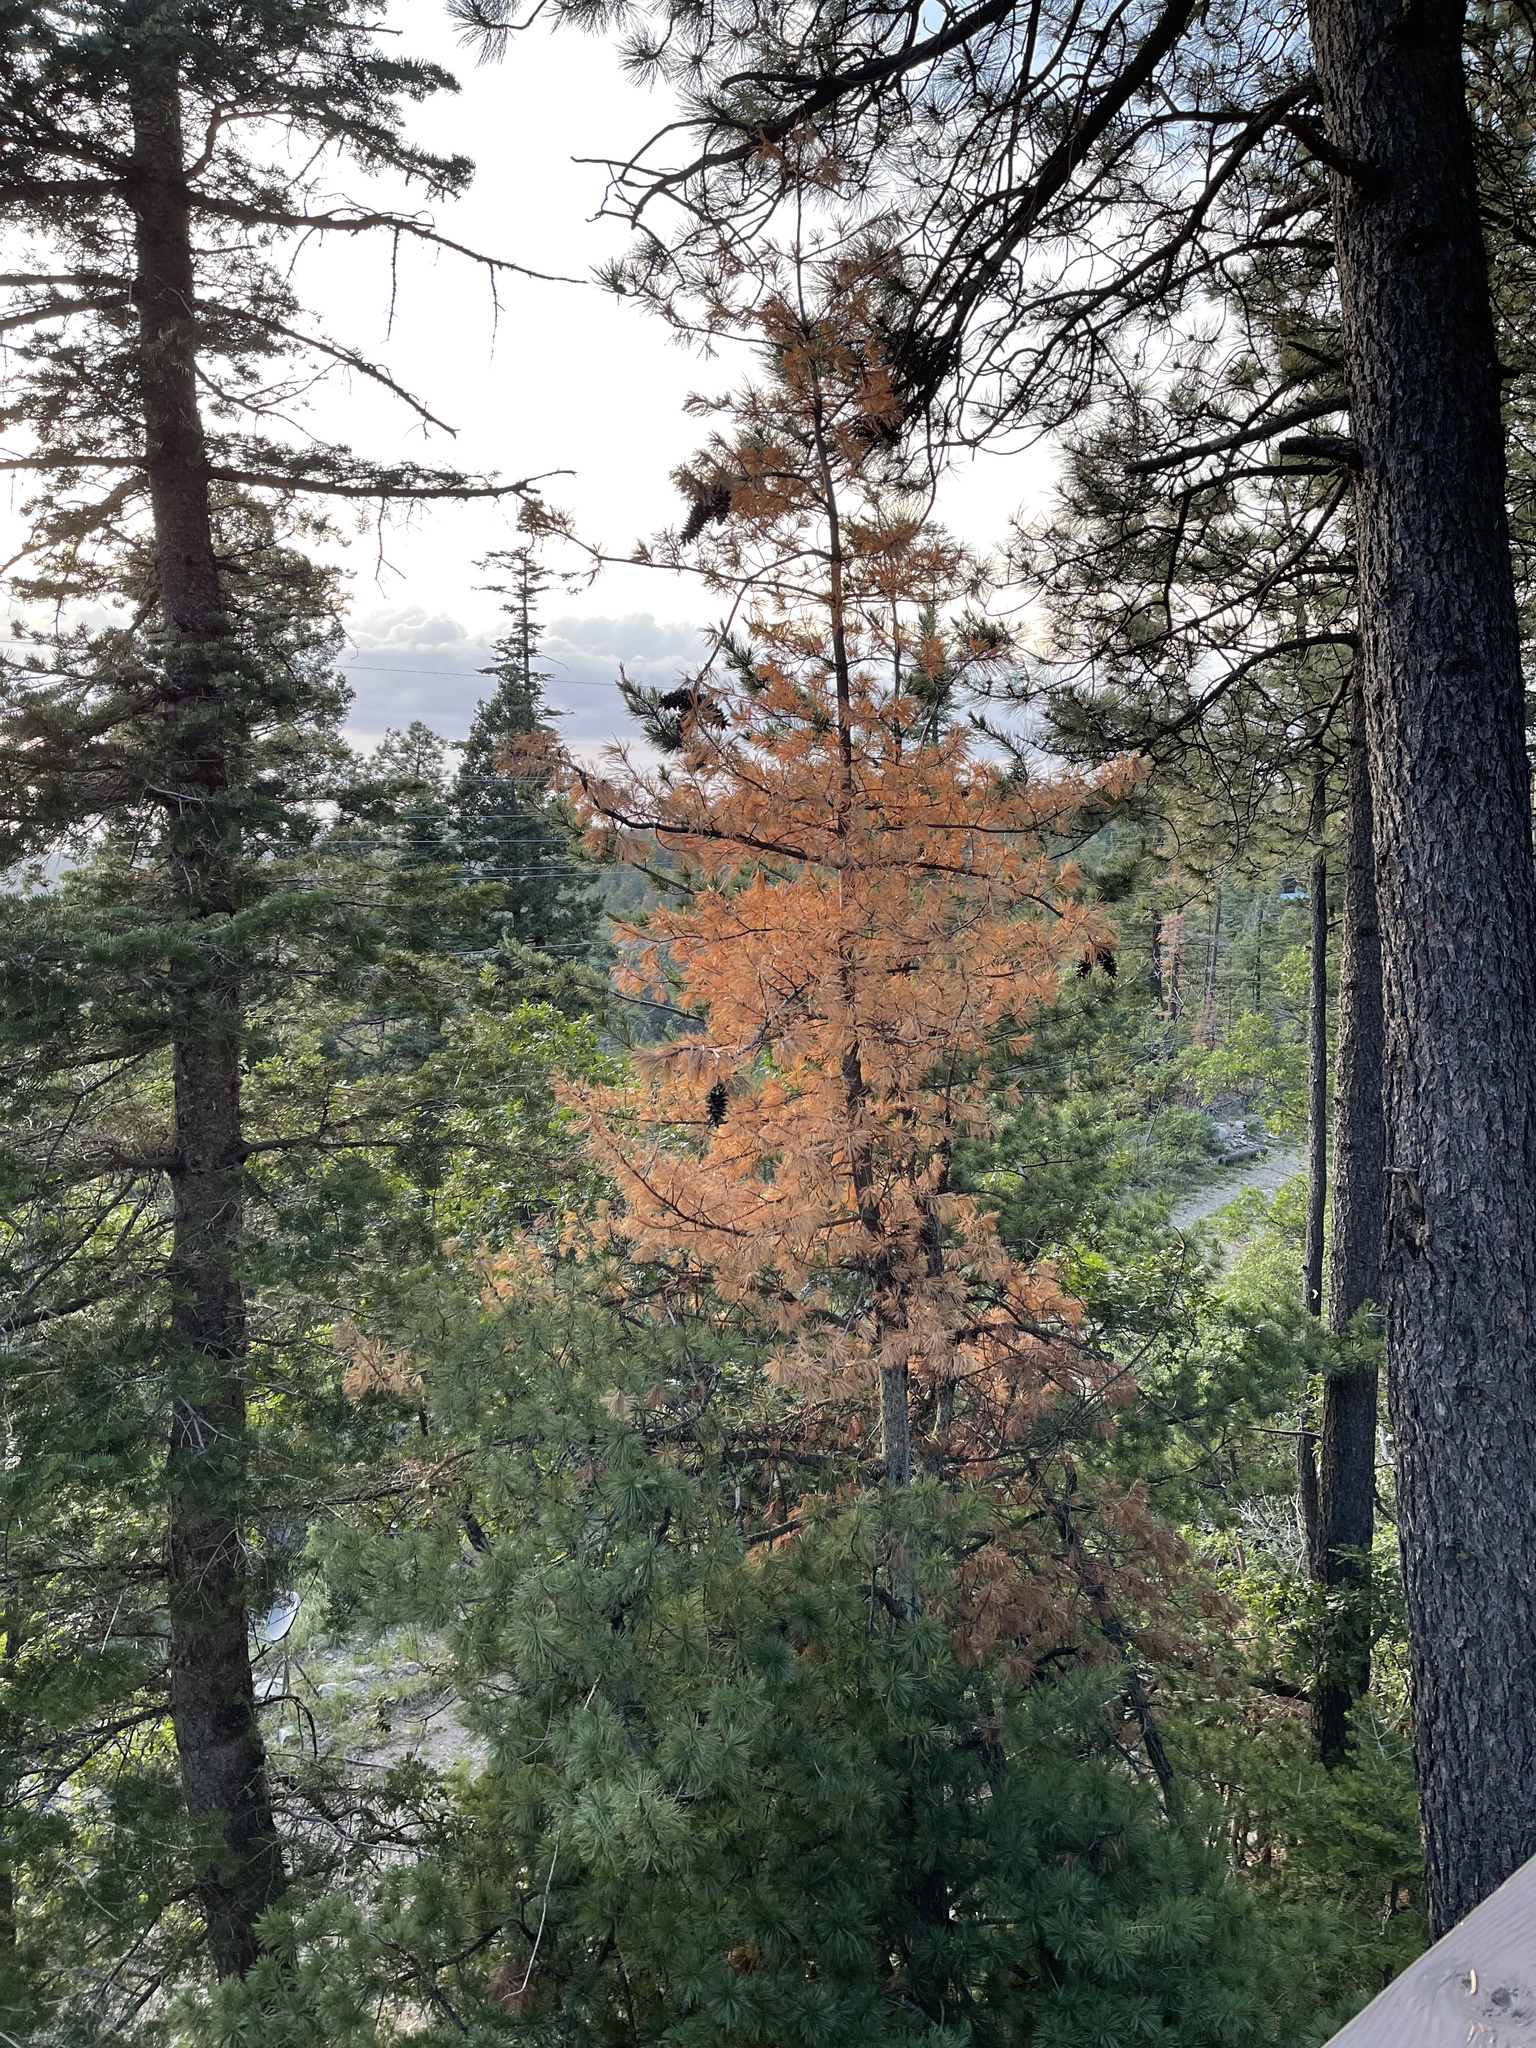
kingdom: Plantae
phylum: Tracheophyta
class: Pinopsida
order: Pinales
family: Pinaceae
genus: Pinus
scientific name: Pinus strobiformis
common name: Southwestern white pine
